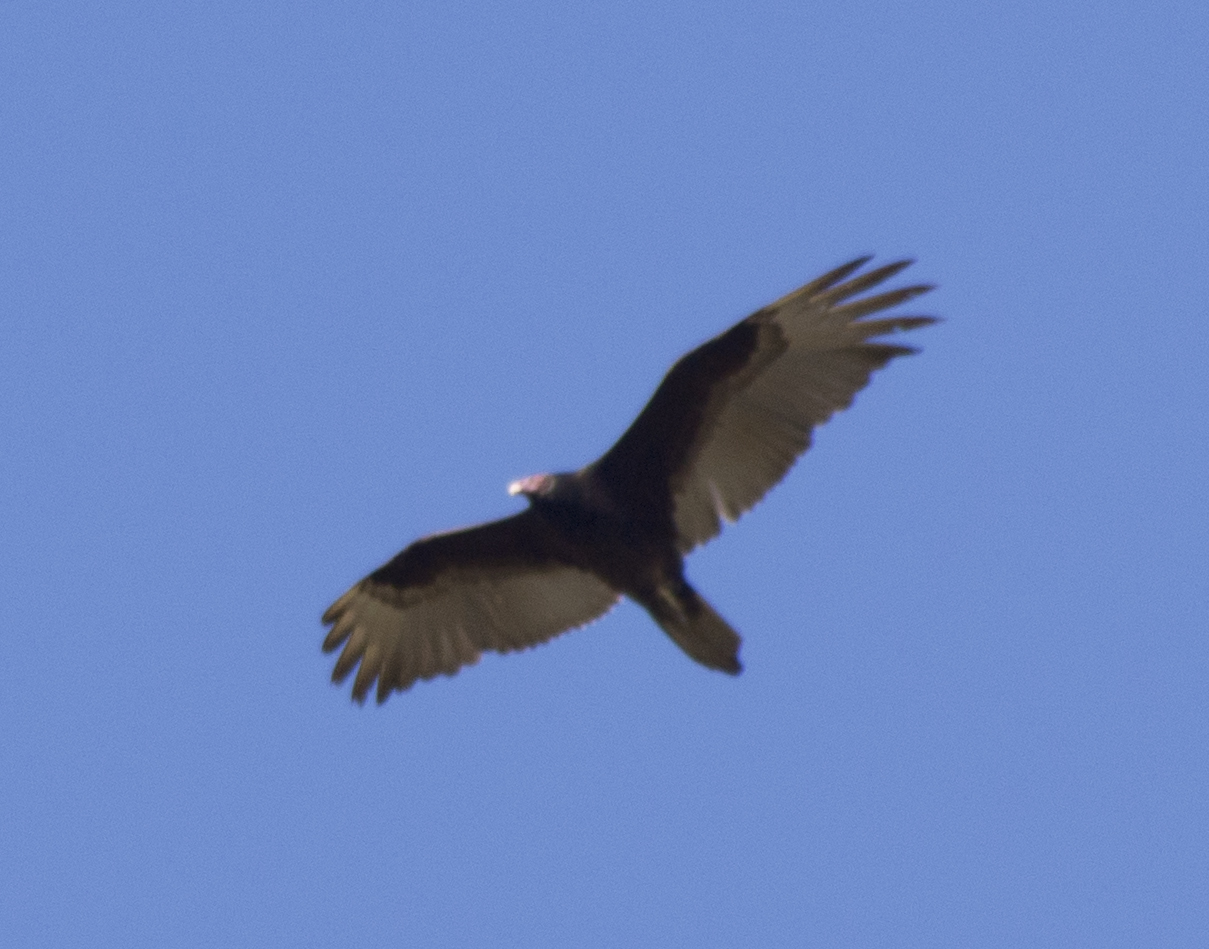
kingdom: Animalia
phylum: Chordata
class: Aves
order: Accipitriformes
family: Cathartidae
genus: Cathartes
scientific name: Cathartes aura
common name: Turkey vulture
